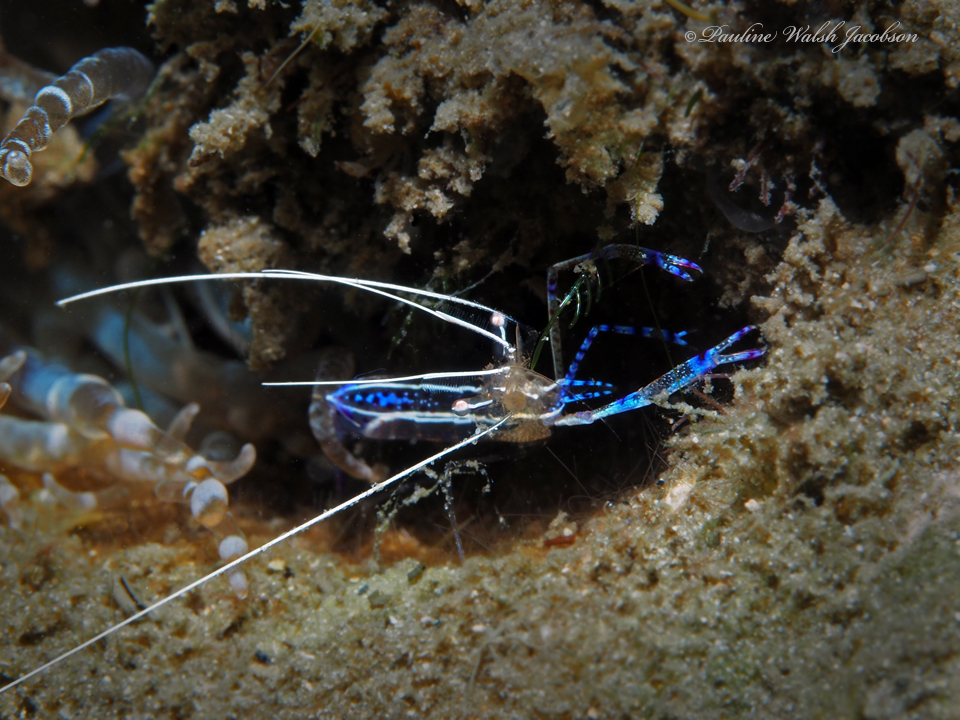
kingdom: Animalia
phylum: Arthropoda
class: Malacostraca
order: Decapoda
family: Palaemonidae
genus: Ancylomenes
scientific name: Ancylomenes pedersoni
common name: Pederson's cleaning shrimp
